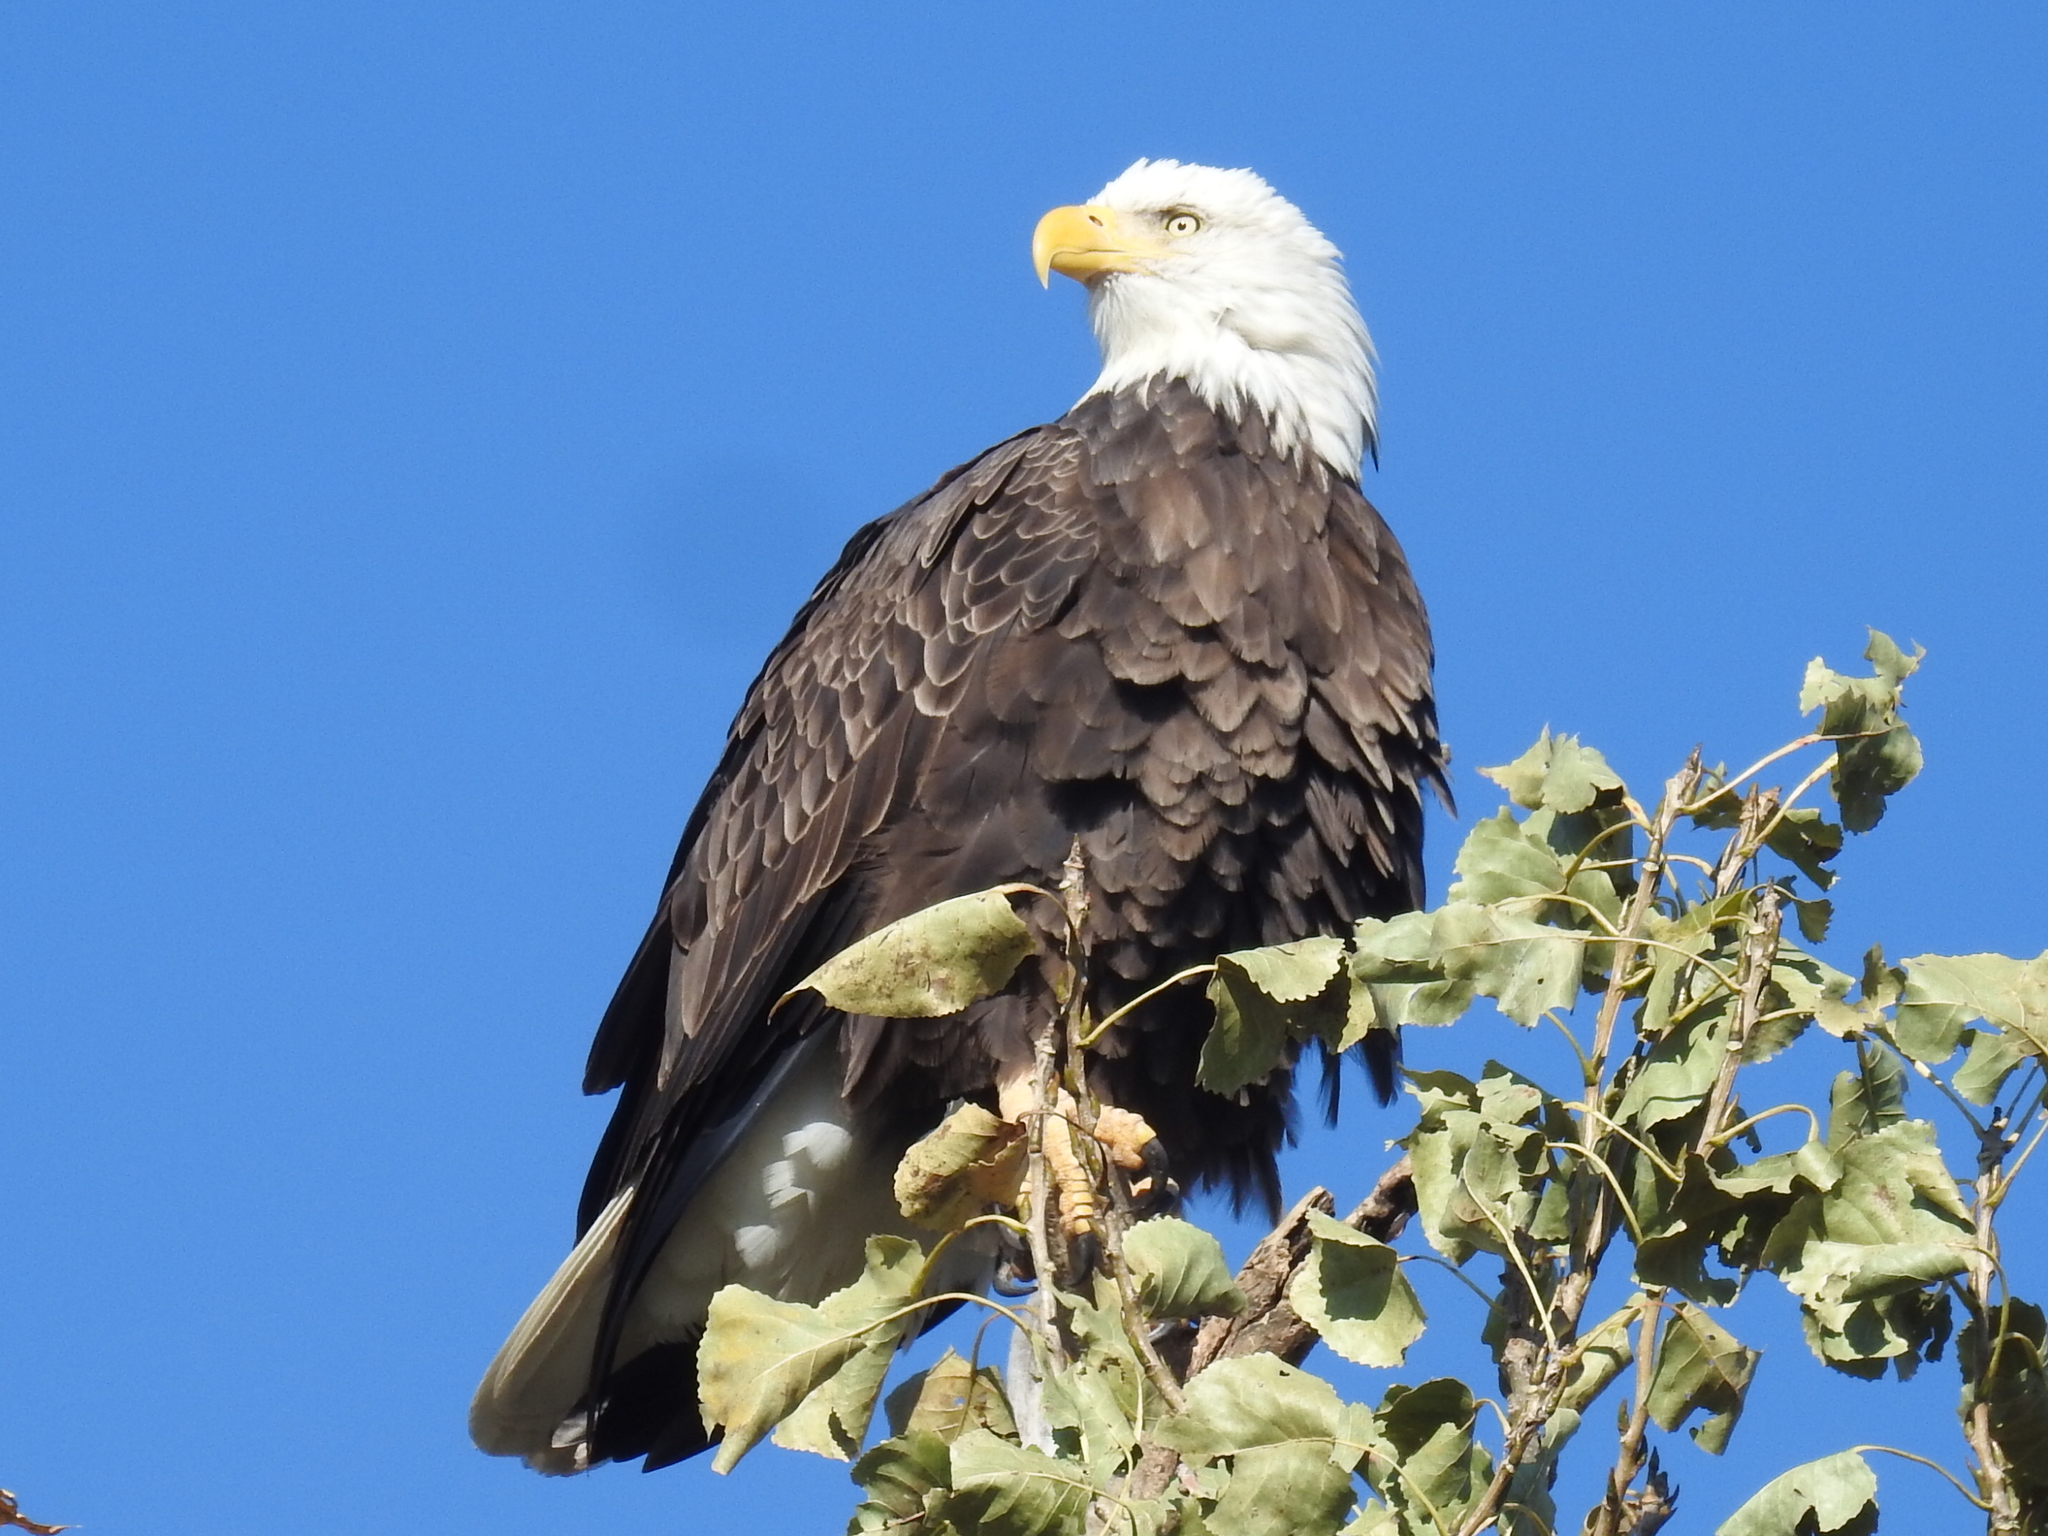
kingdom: Animalia
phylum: Chordata
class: Aves
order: Accipitriformes
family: Accipitridae
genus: Haliaeetus
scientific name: Haliaeetus leucocephalus
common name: Bald eagle
